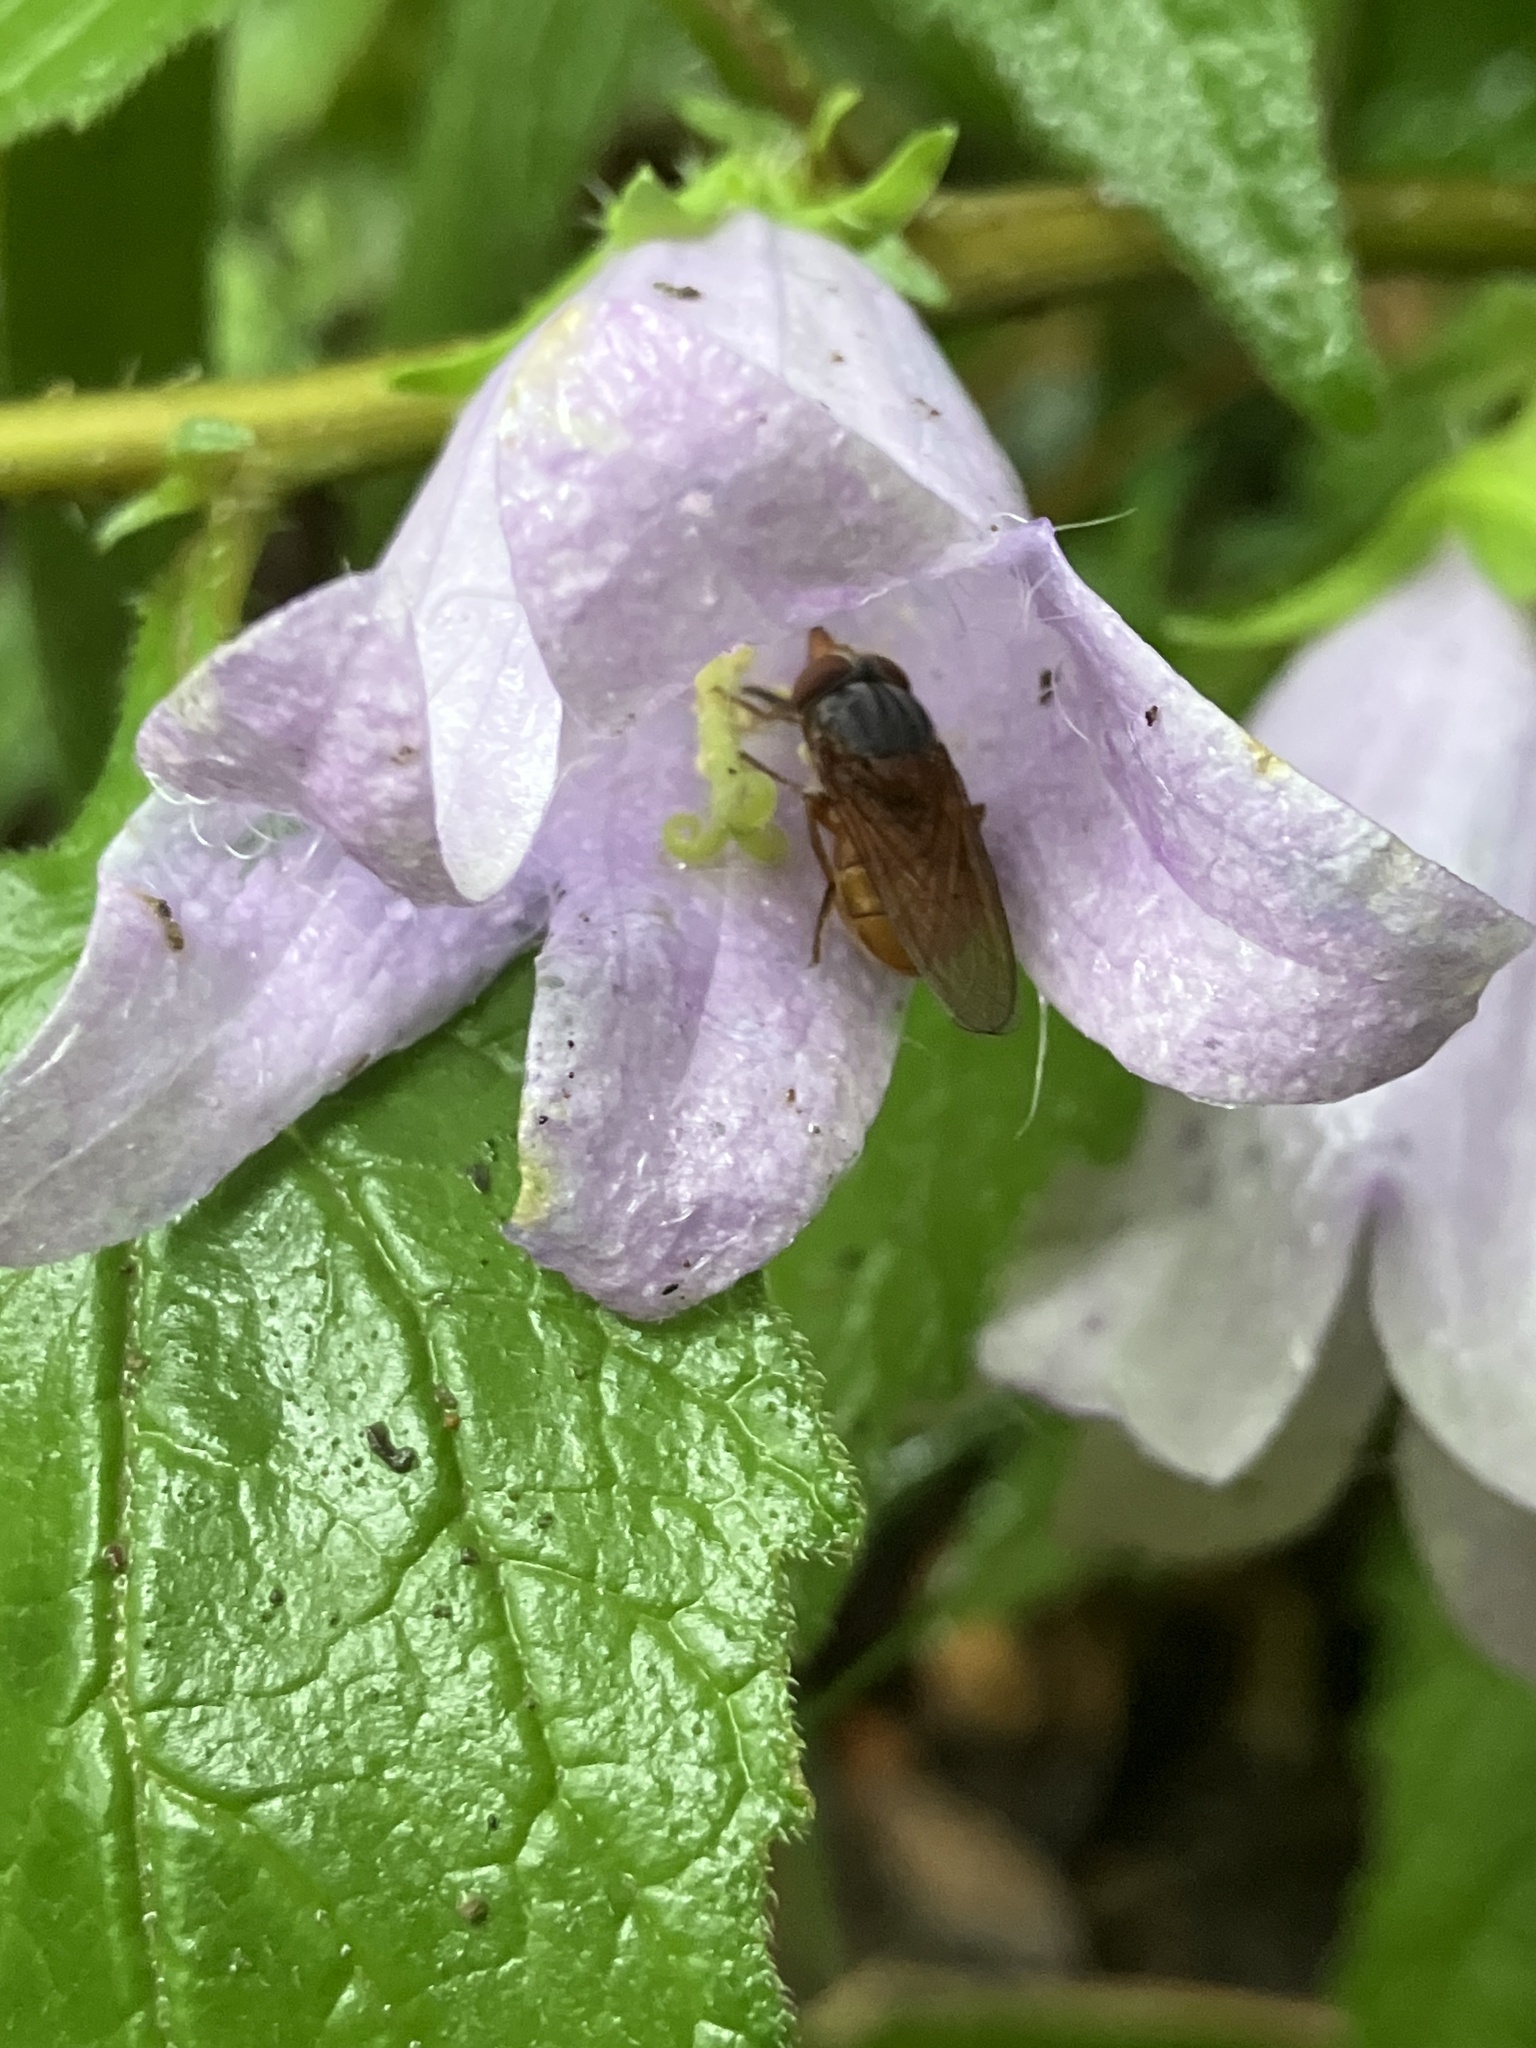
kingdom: Animalia
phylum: Arthropoda
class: Insecta
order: Diptera
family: Syrphidae
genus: Rhingia
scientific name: Rhingia rostrata
